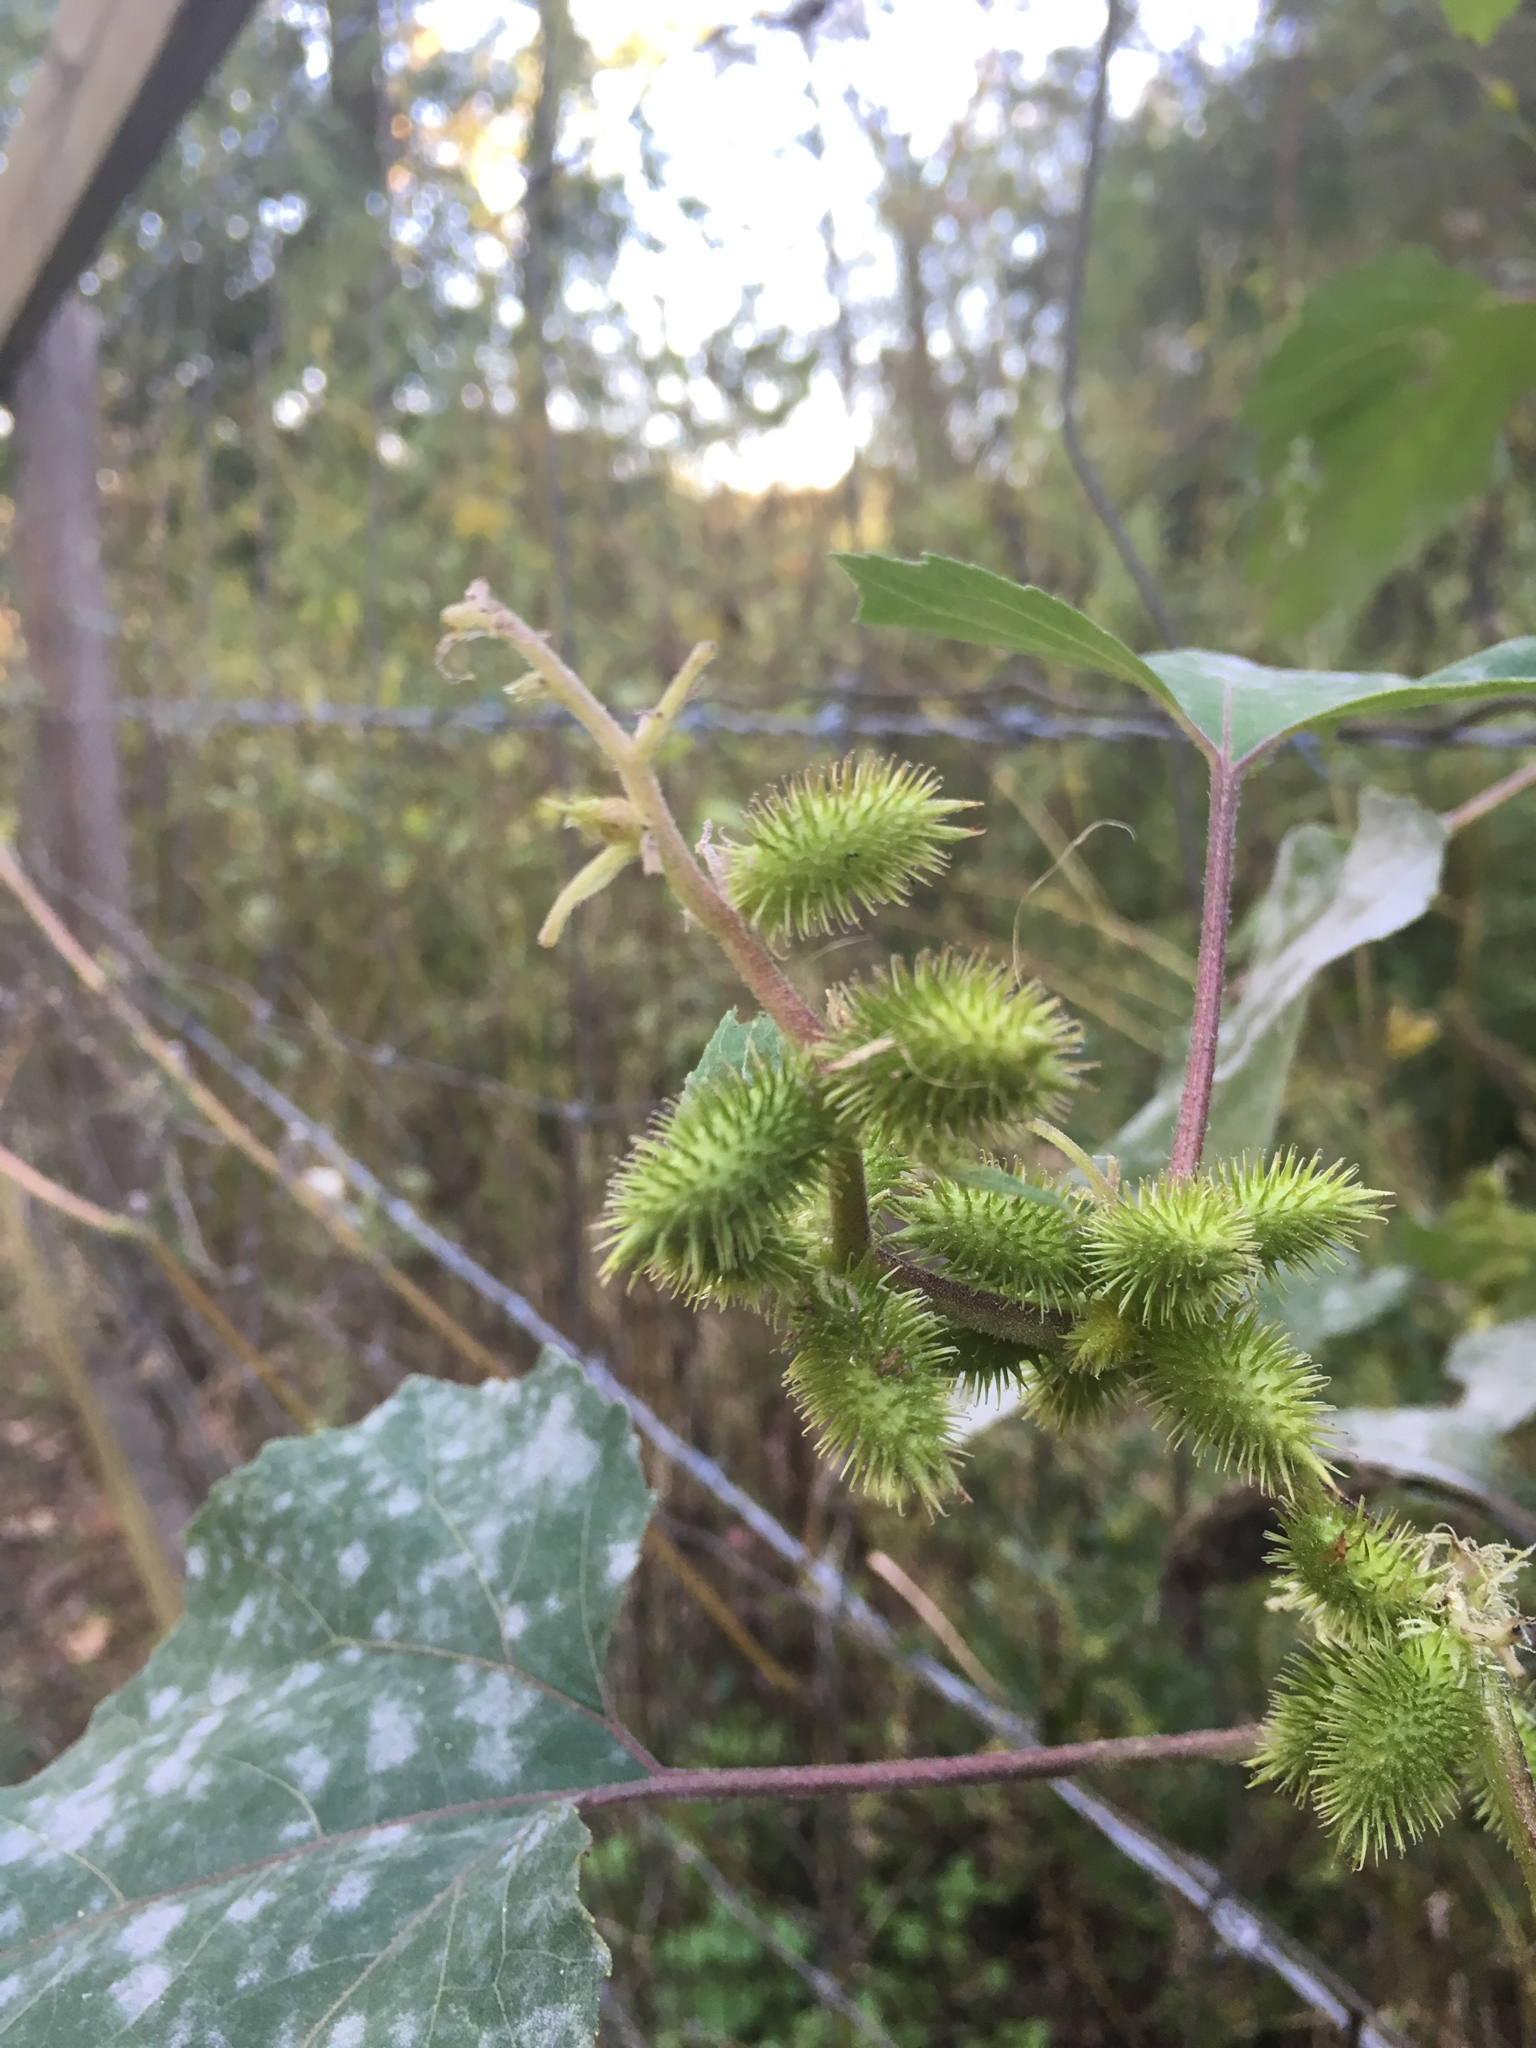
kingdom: Plantae
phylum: Tracheophyta
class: Magnoliopsida
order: Asterales
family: Asteraceae
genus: Xanthium
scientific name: Xanthium strumarium
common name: Rough cocklebur
